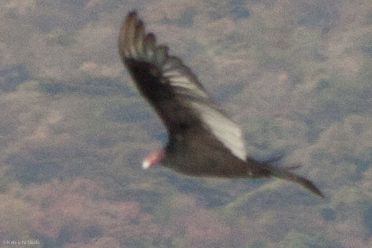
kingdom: Animalia
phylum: Chordata
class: Aves
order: Accipitriformes
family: Cathartidae
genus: Cathartes
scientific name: Cathartes aura
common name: Turkey vulture
